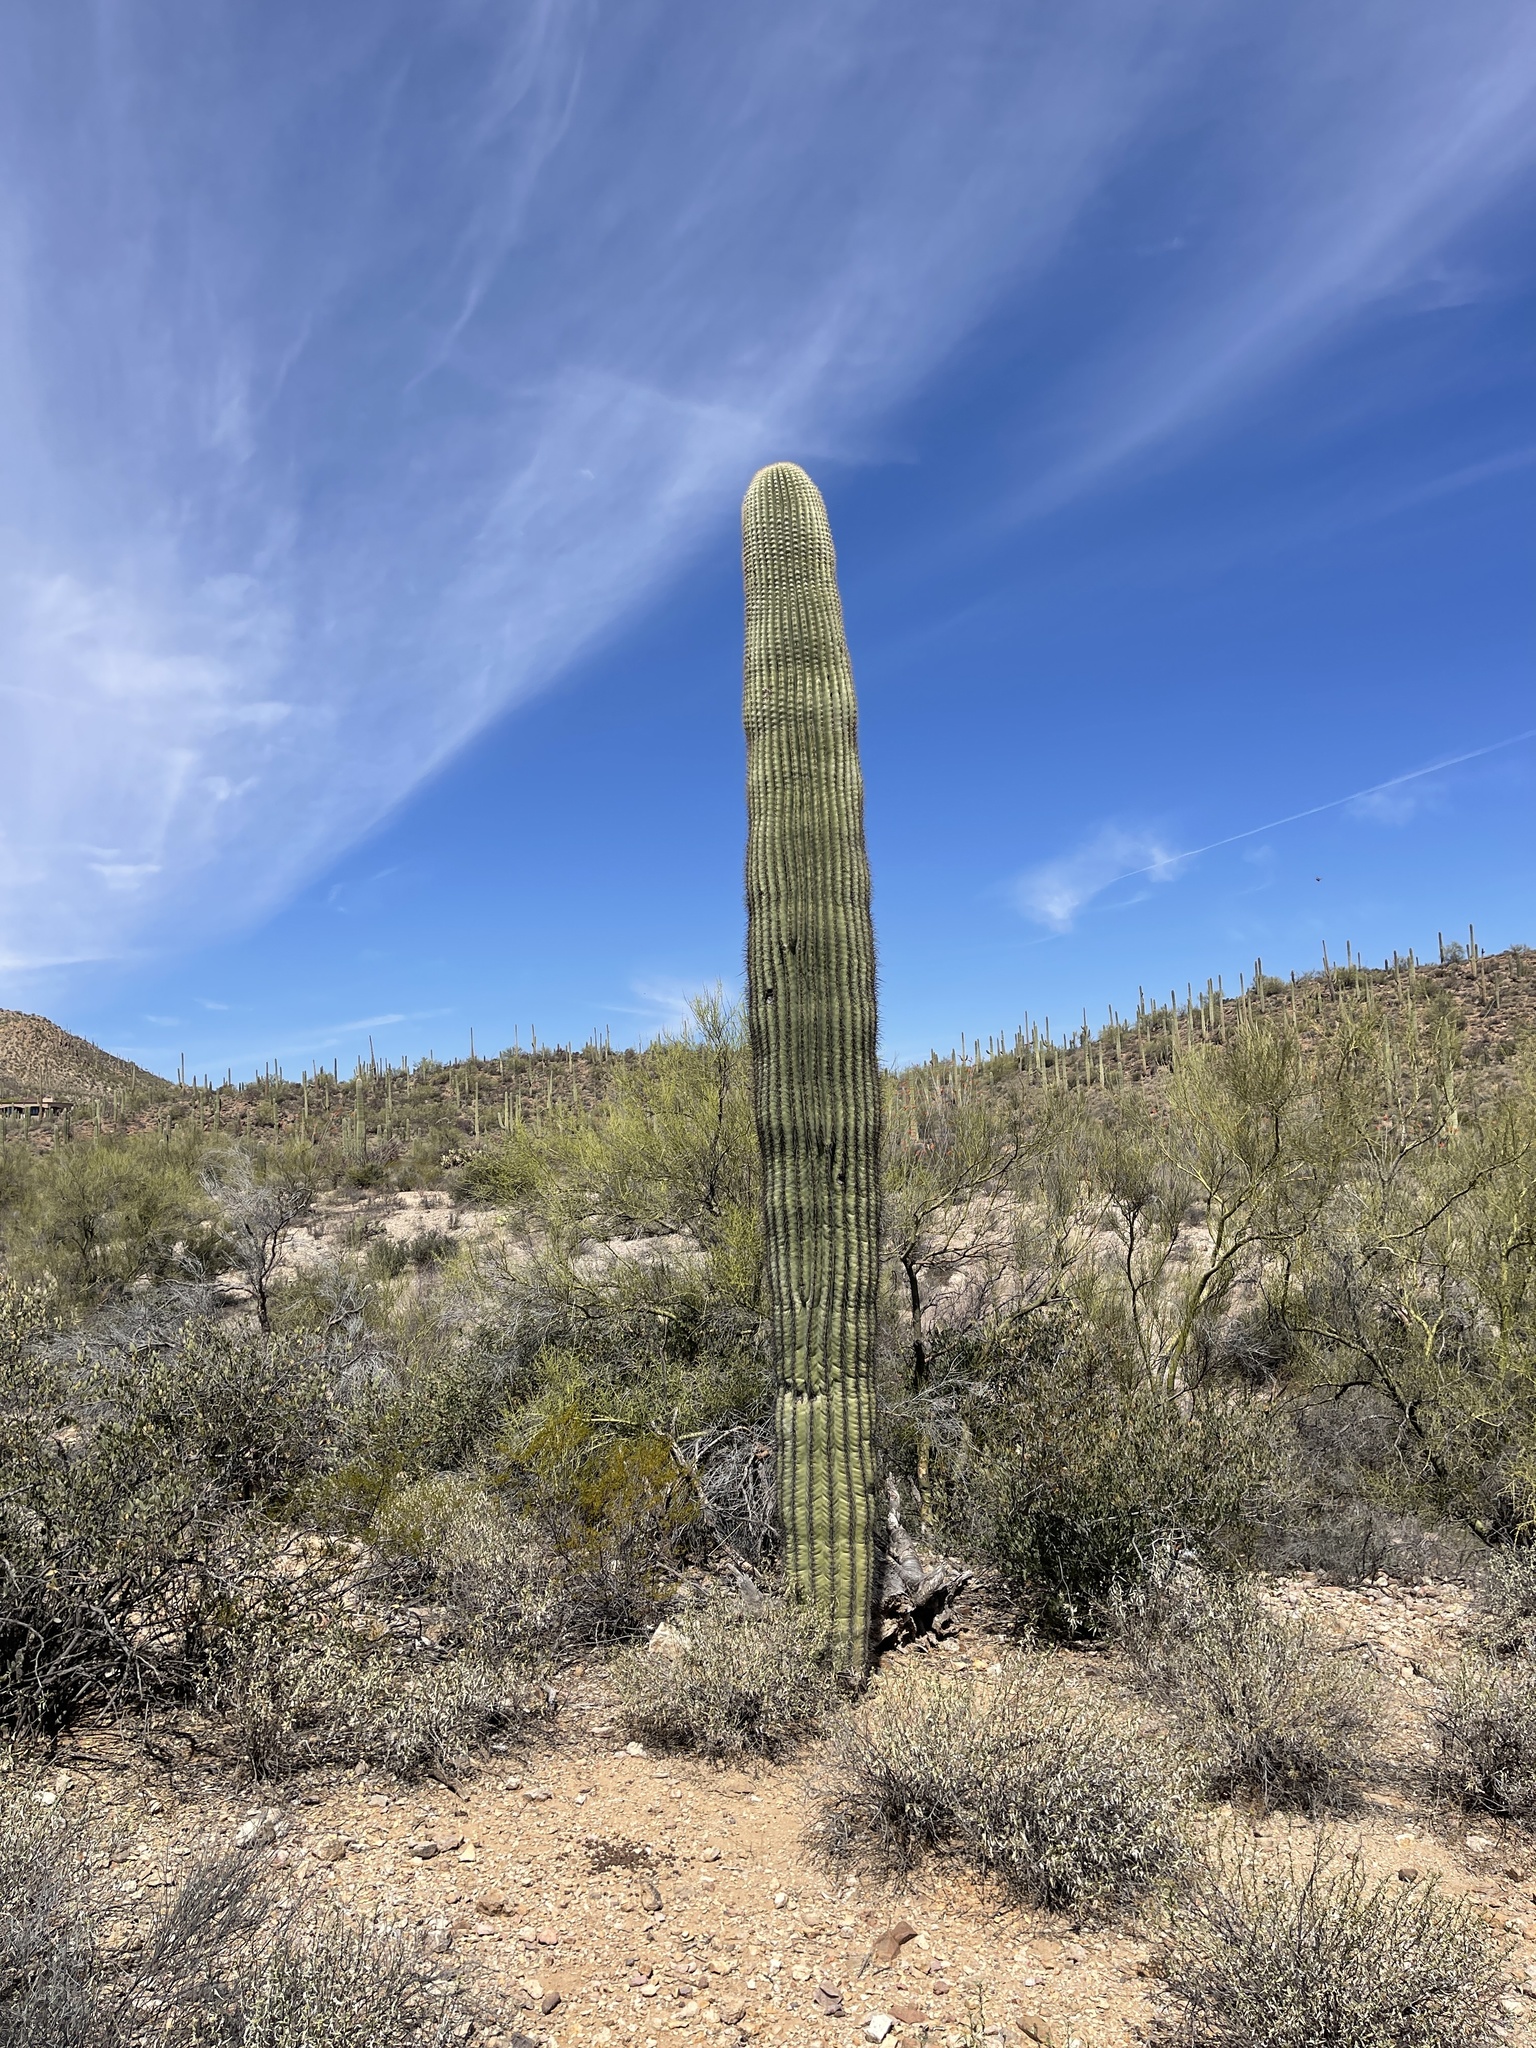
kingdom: Plantae
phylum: Tracheophyta
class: Magnoliopsida
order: Caryophyllales
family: Cactaceae
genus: Carnegiea
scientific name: Carnegiea gigantea
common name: Saguaro
